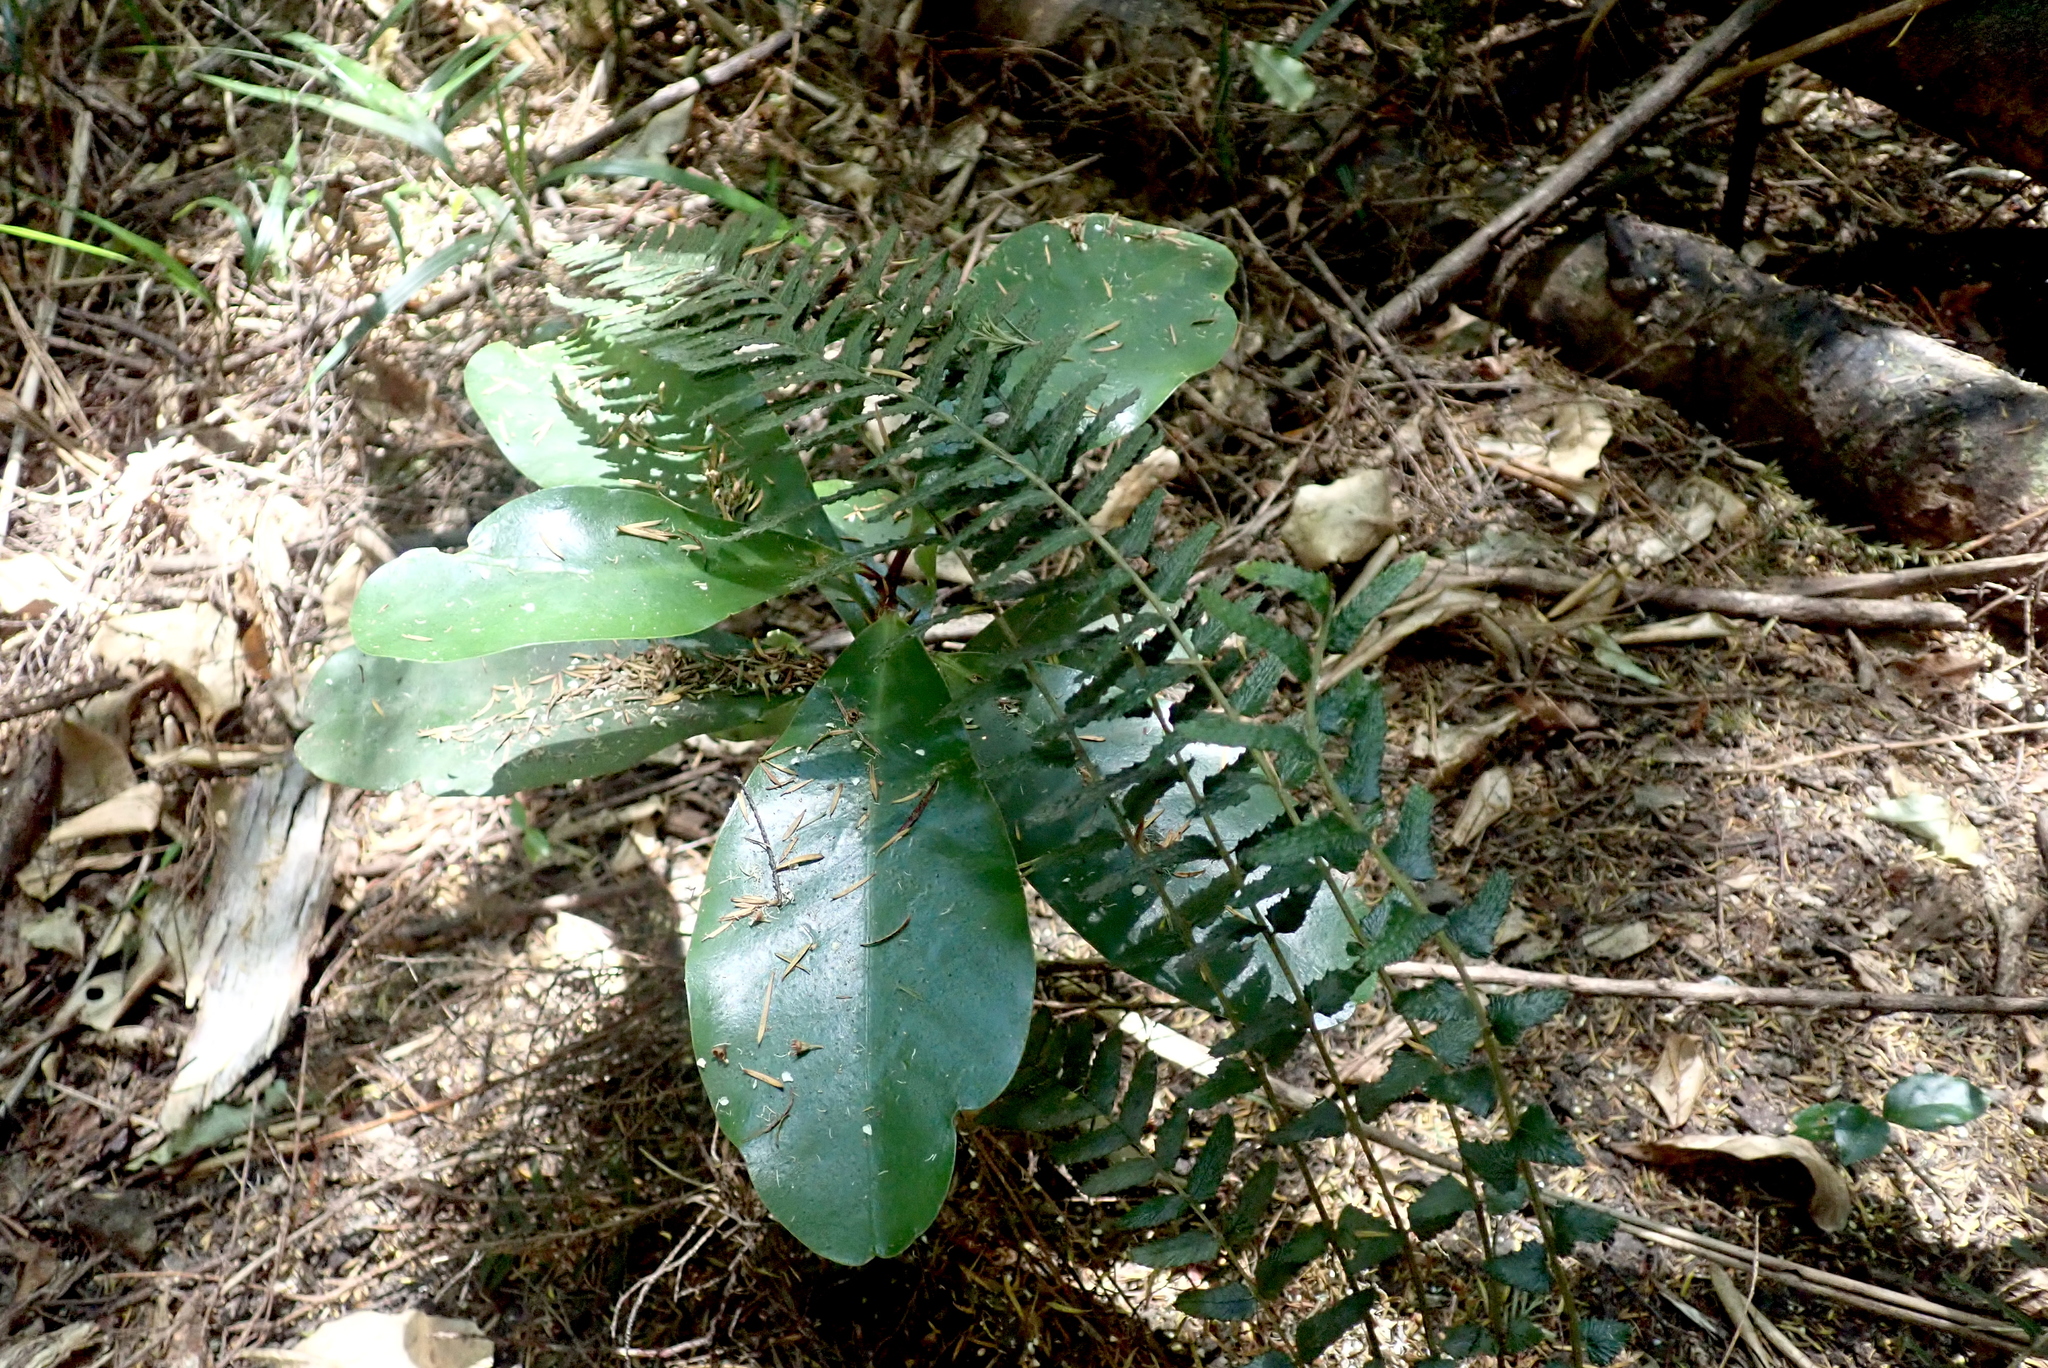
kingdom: Plantae
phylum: Tracheophyta
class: Magnoliopsida
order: Cucurbitales
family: Corynocarpaceae
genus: Corynocarpus
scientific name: Corynocarpus laevigatus
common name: New zealand laurel
